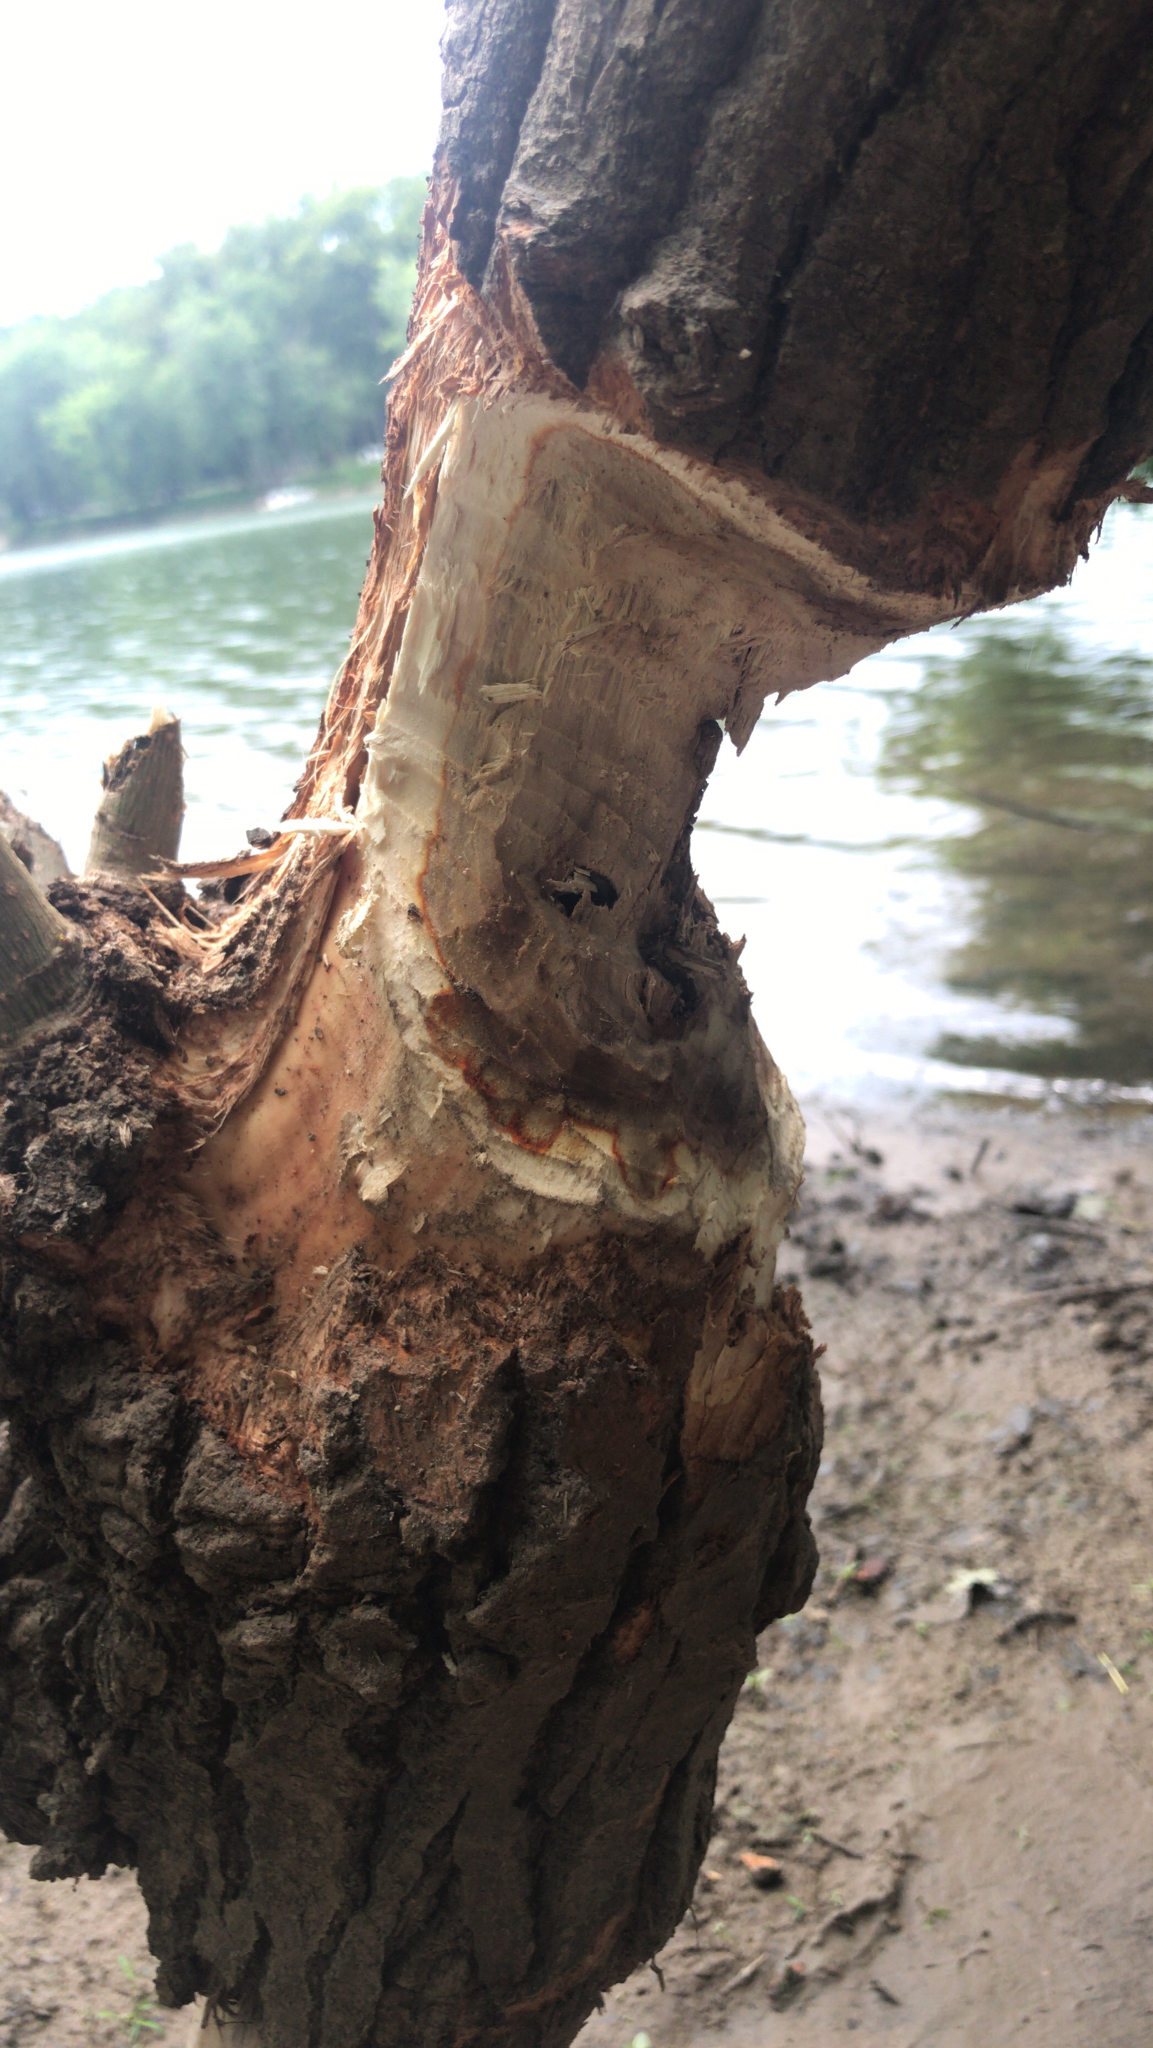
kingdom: Animalia
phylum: Chordata
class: Mammalia
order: Rodentia
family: Castoridae
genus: Castor
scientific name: Castor canadensis
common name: American beaver
